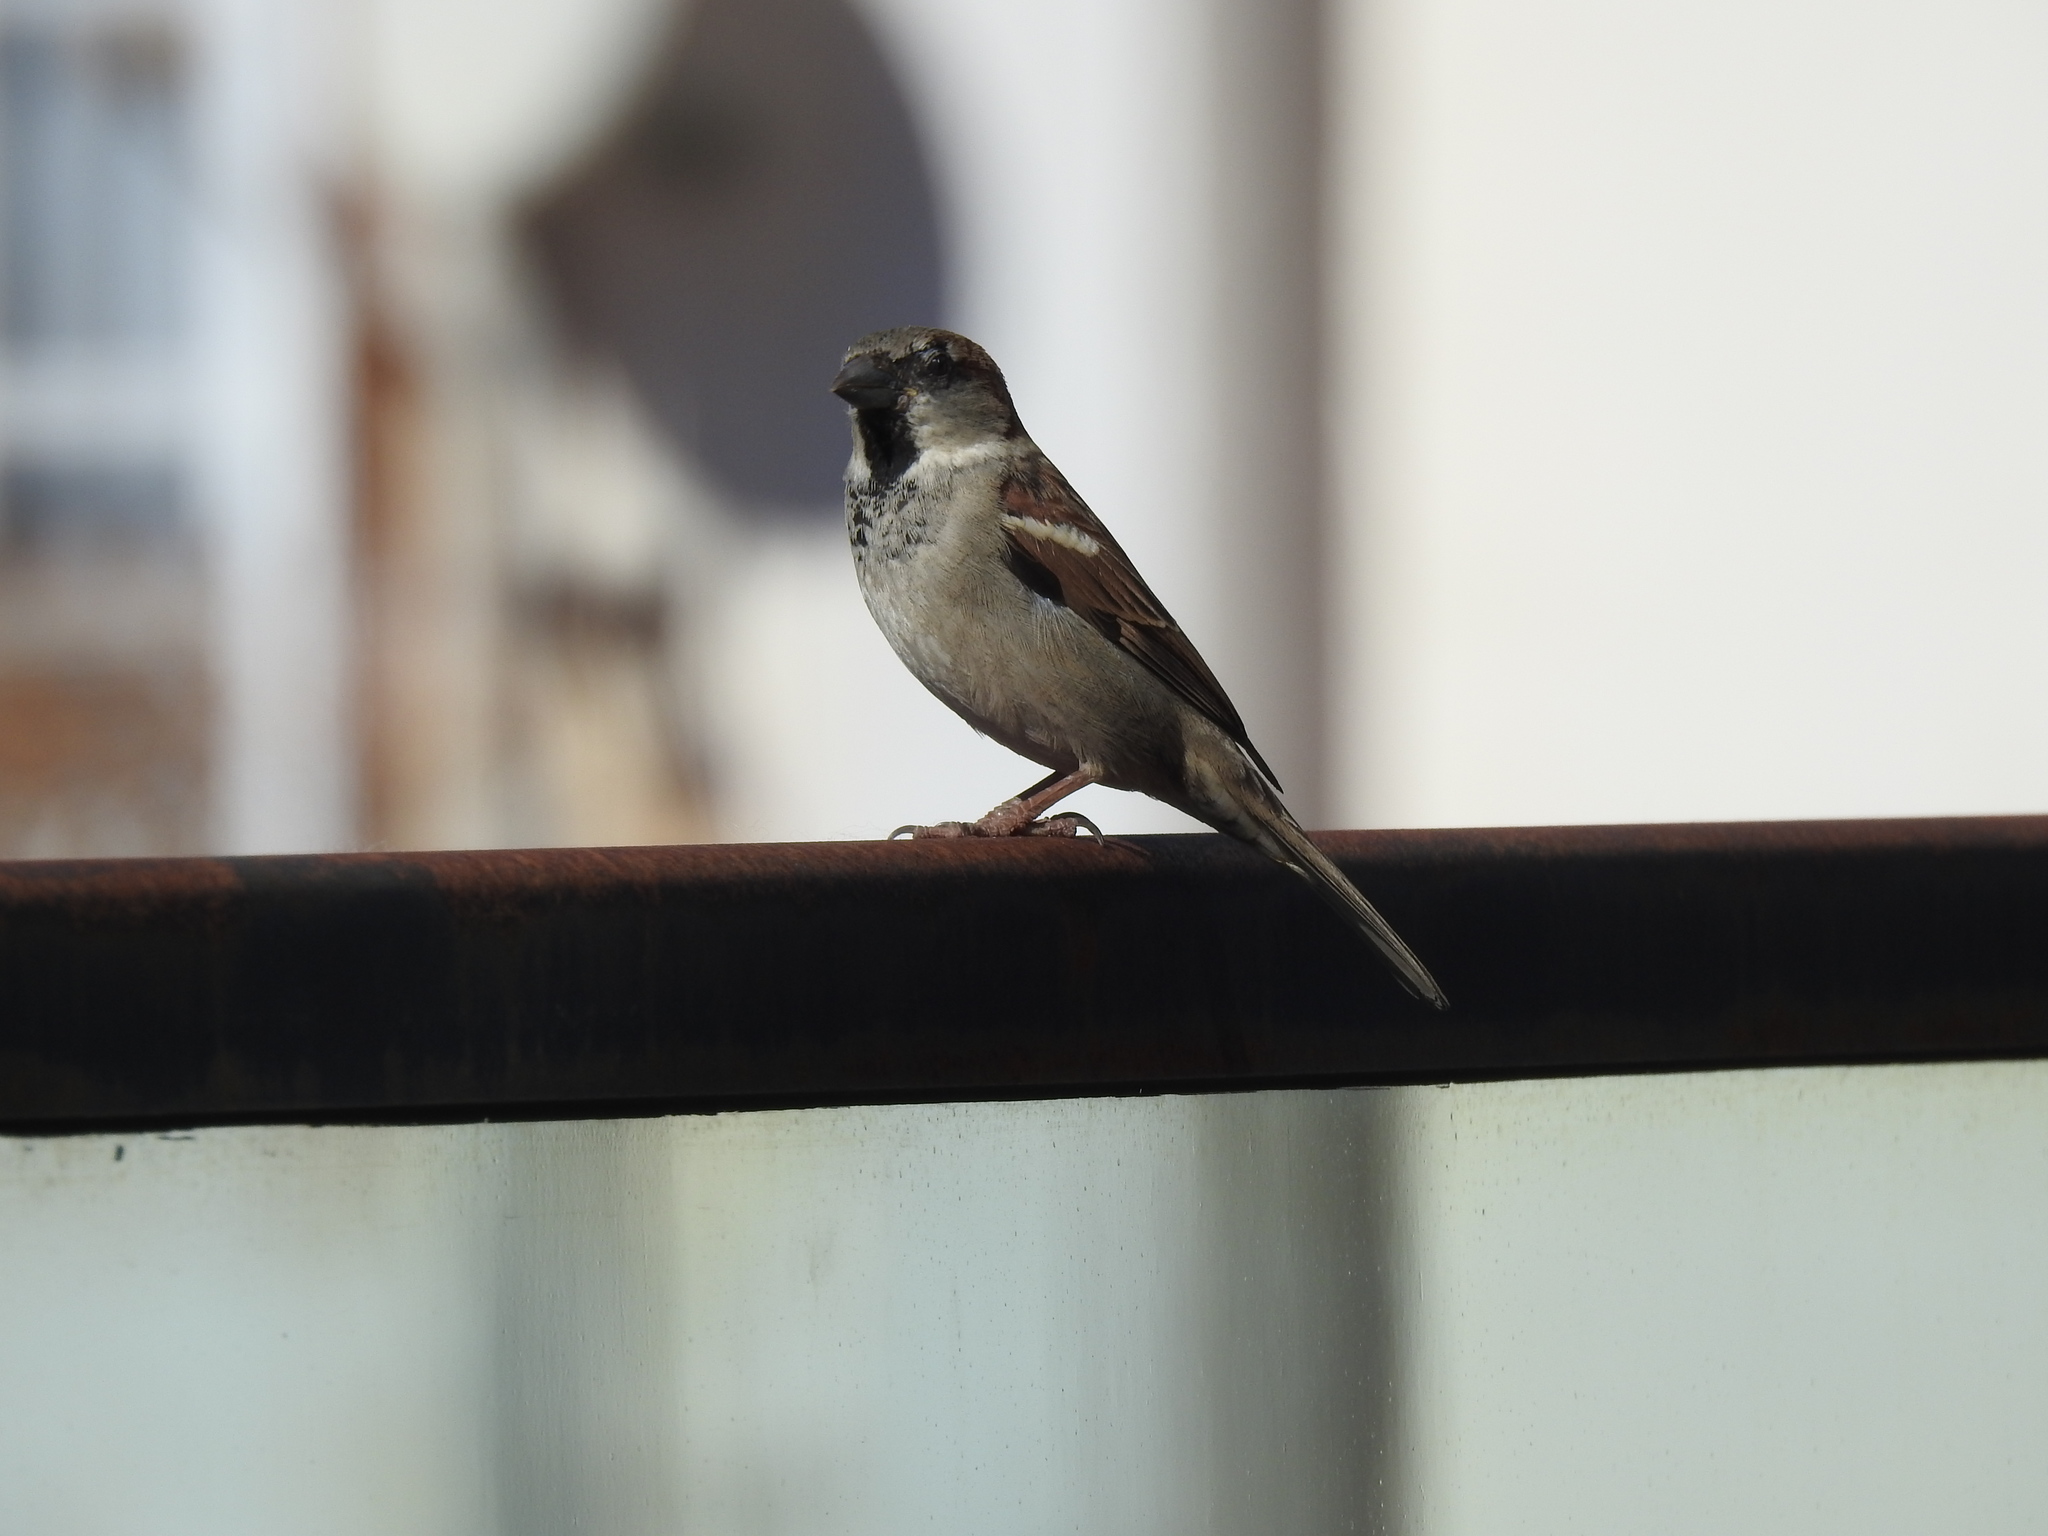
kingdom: Animalia
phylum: Chordata
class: Aves
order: Passeriformes
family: Passeridae
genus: Passer
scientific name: Passer domesticus
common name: House sparrow
